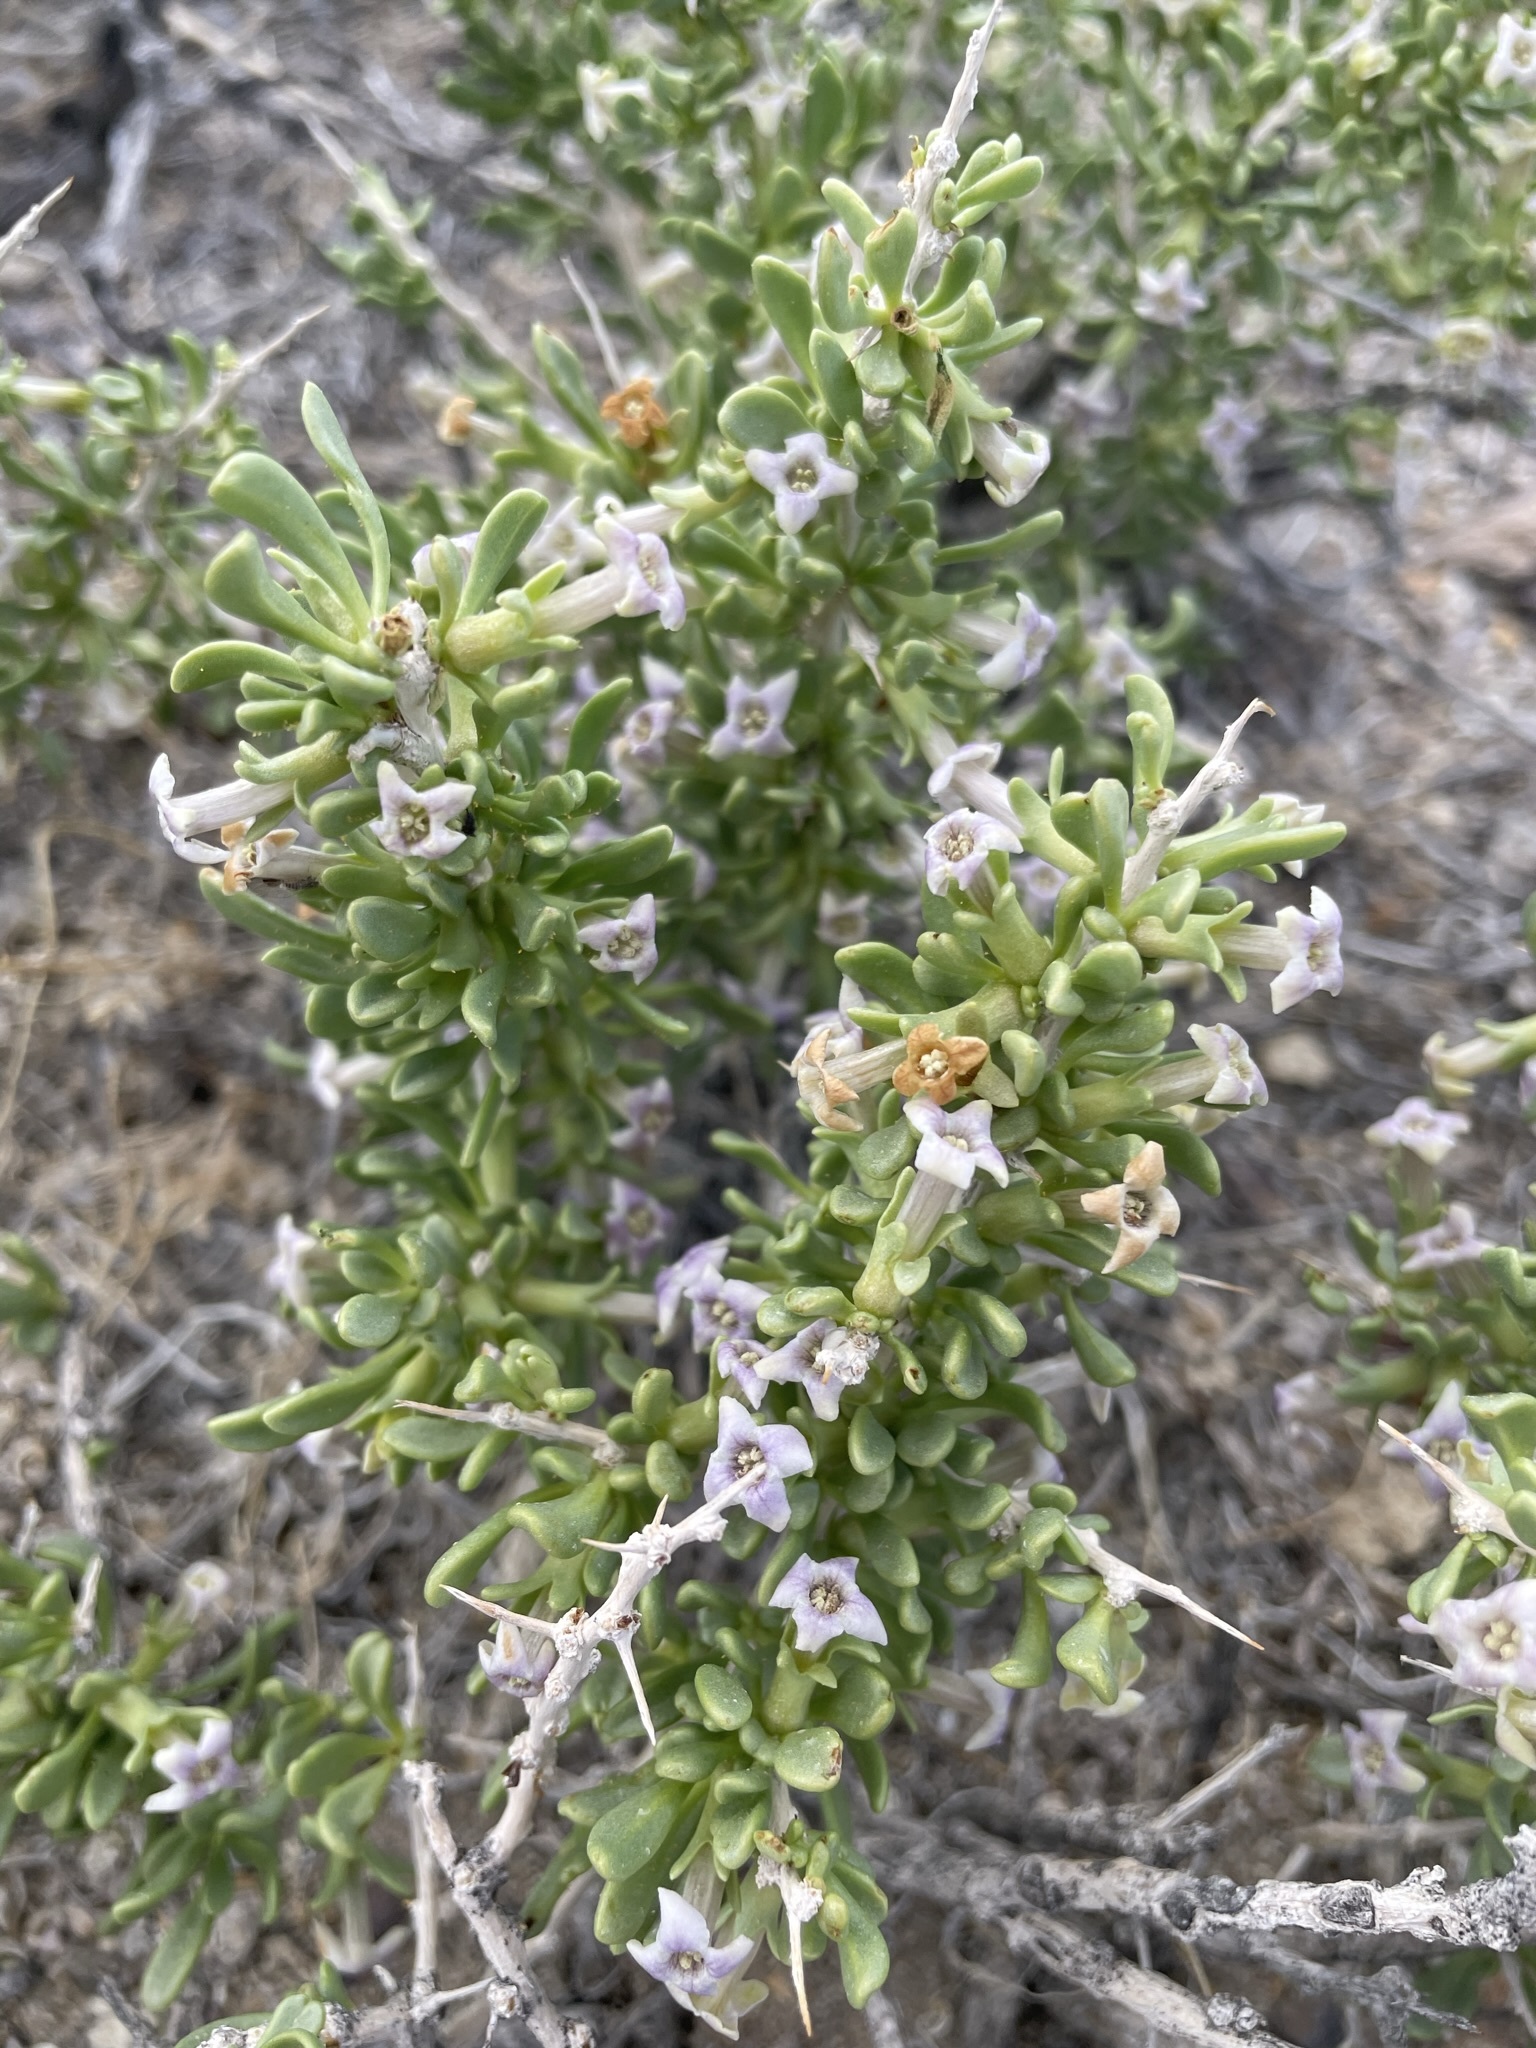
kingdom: Plantae
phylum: Tracheophyta
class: Magnoliopsida
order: Solanales
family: Solanaceae
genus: Lycium
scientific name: Lycium shockleyi
